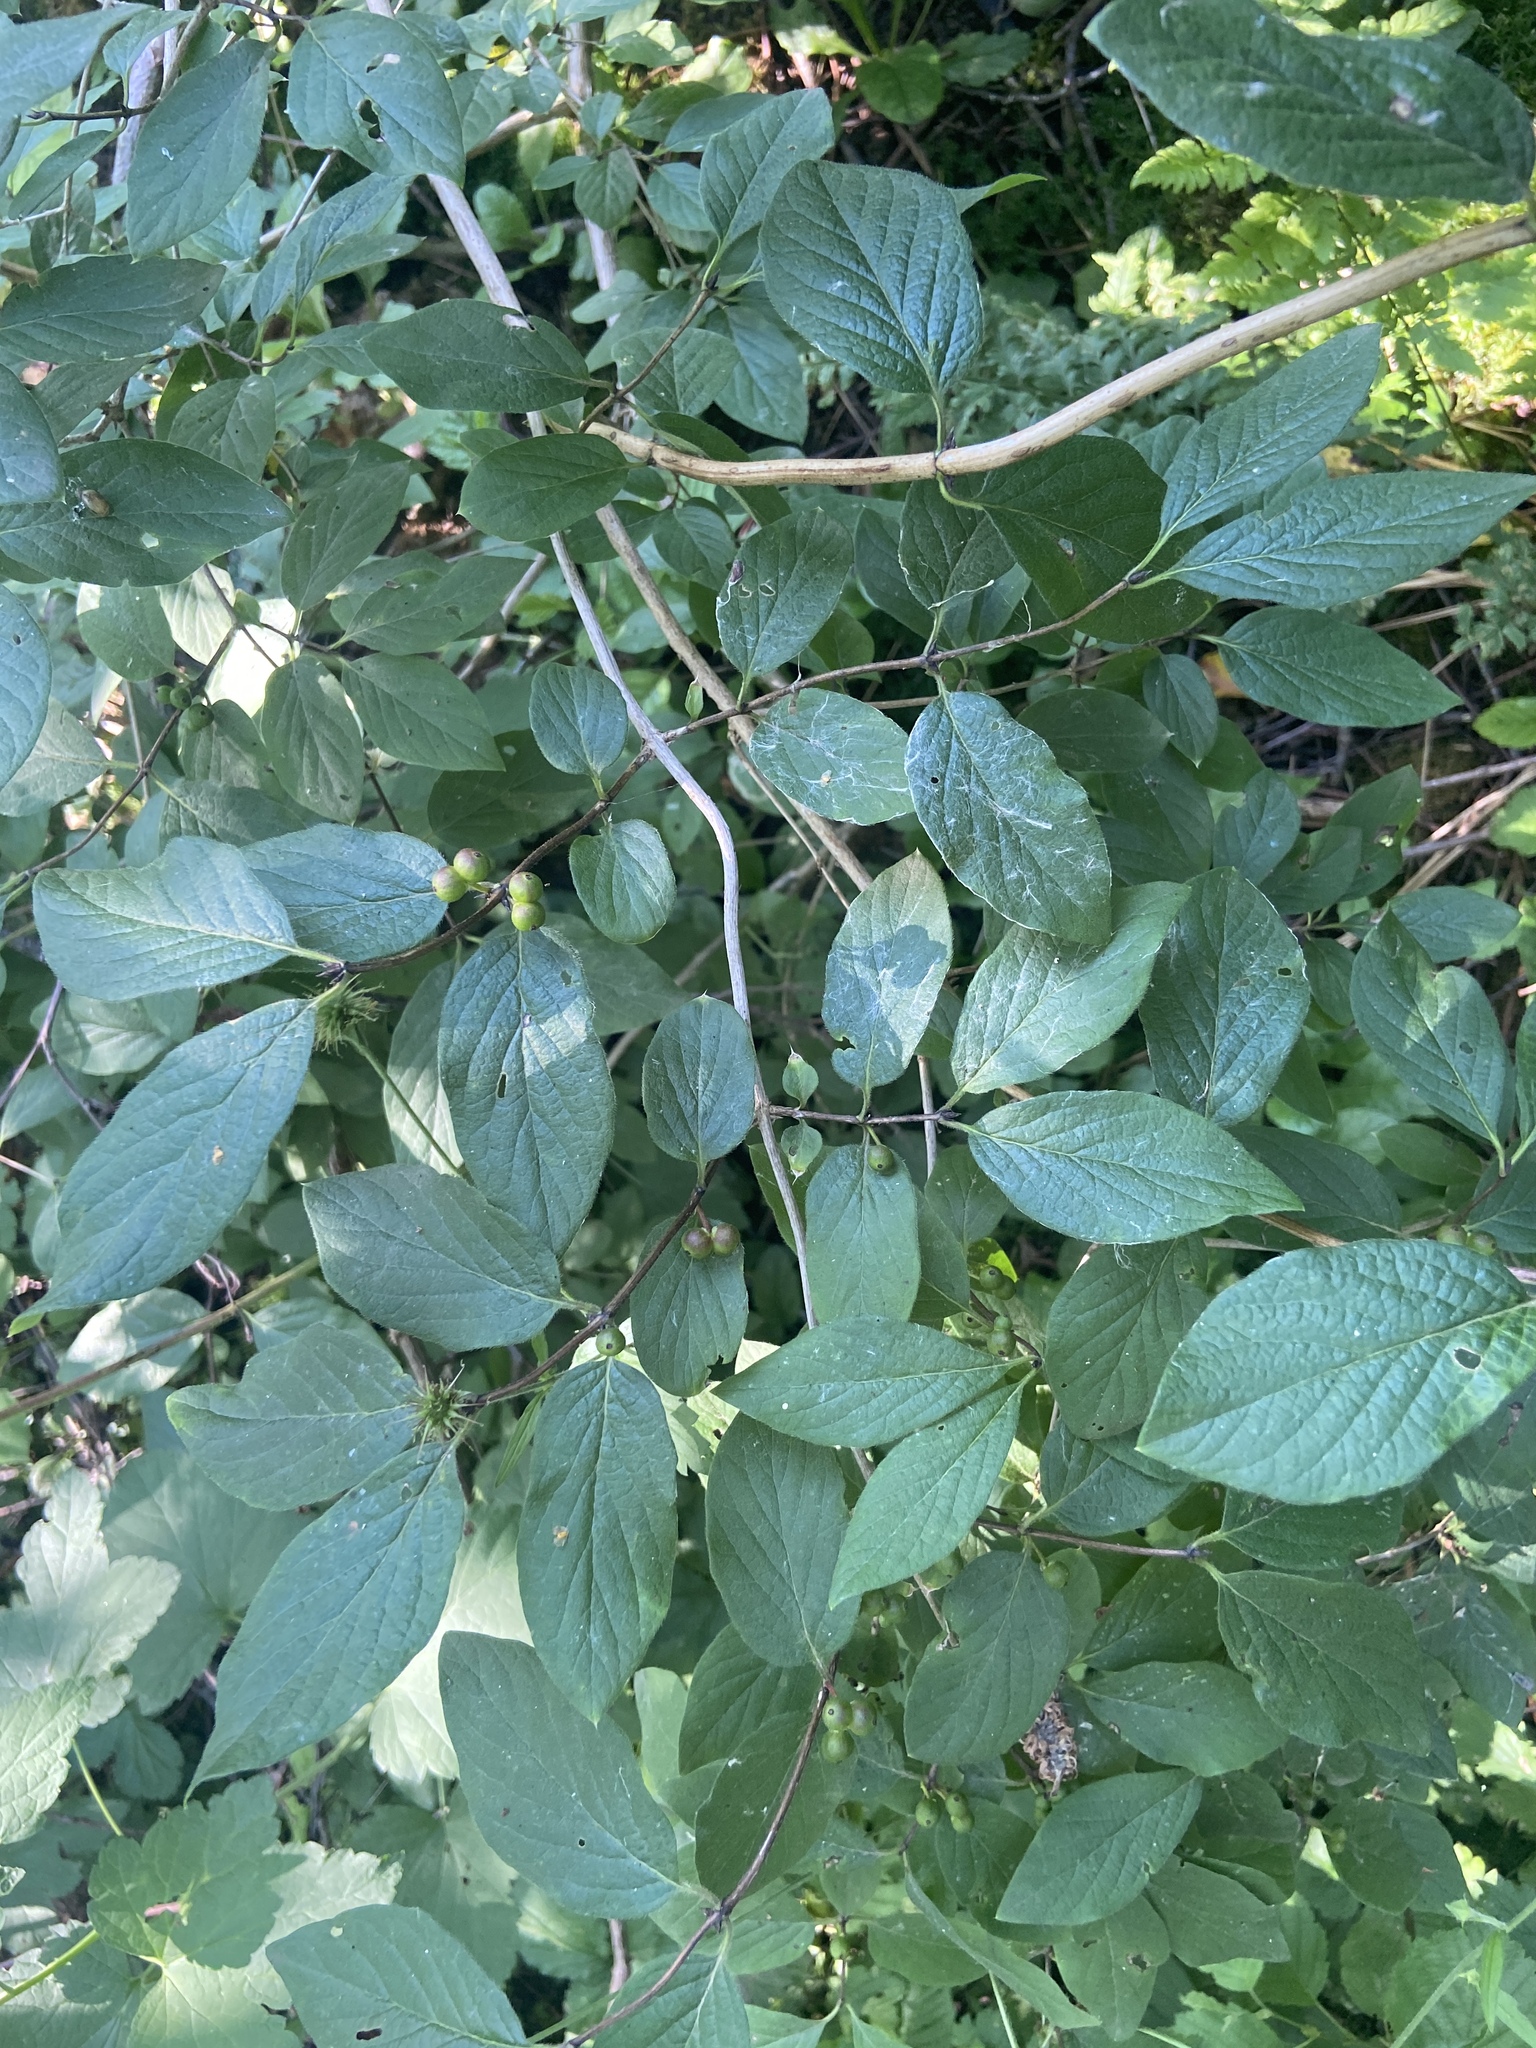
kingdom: Plantae
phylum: Tracheophyta
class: Magnoliopsida
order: Dipsacales
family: Caprifoliaceae
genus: Lonicera
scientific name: Lonicera xylosteum
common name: Fly honeysuckle
